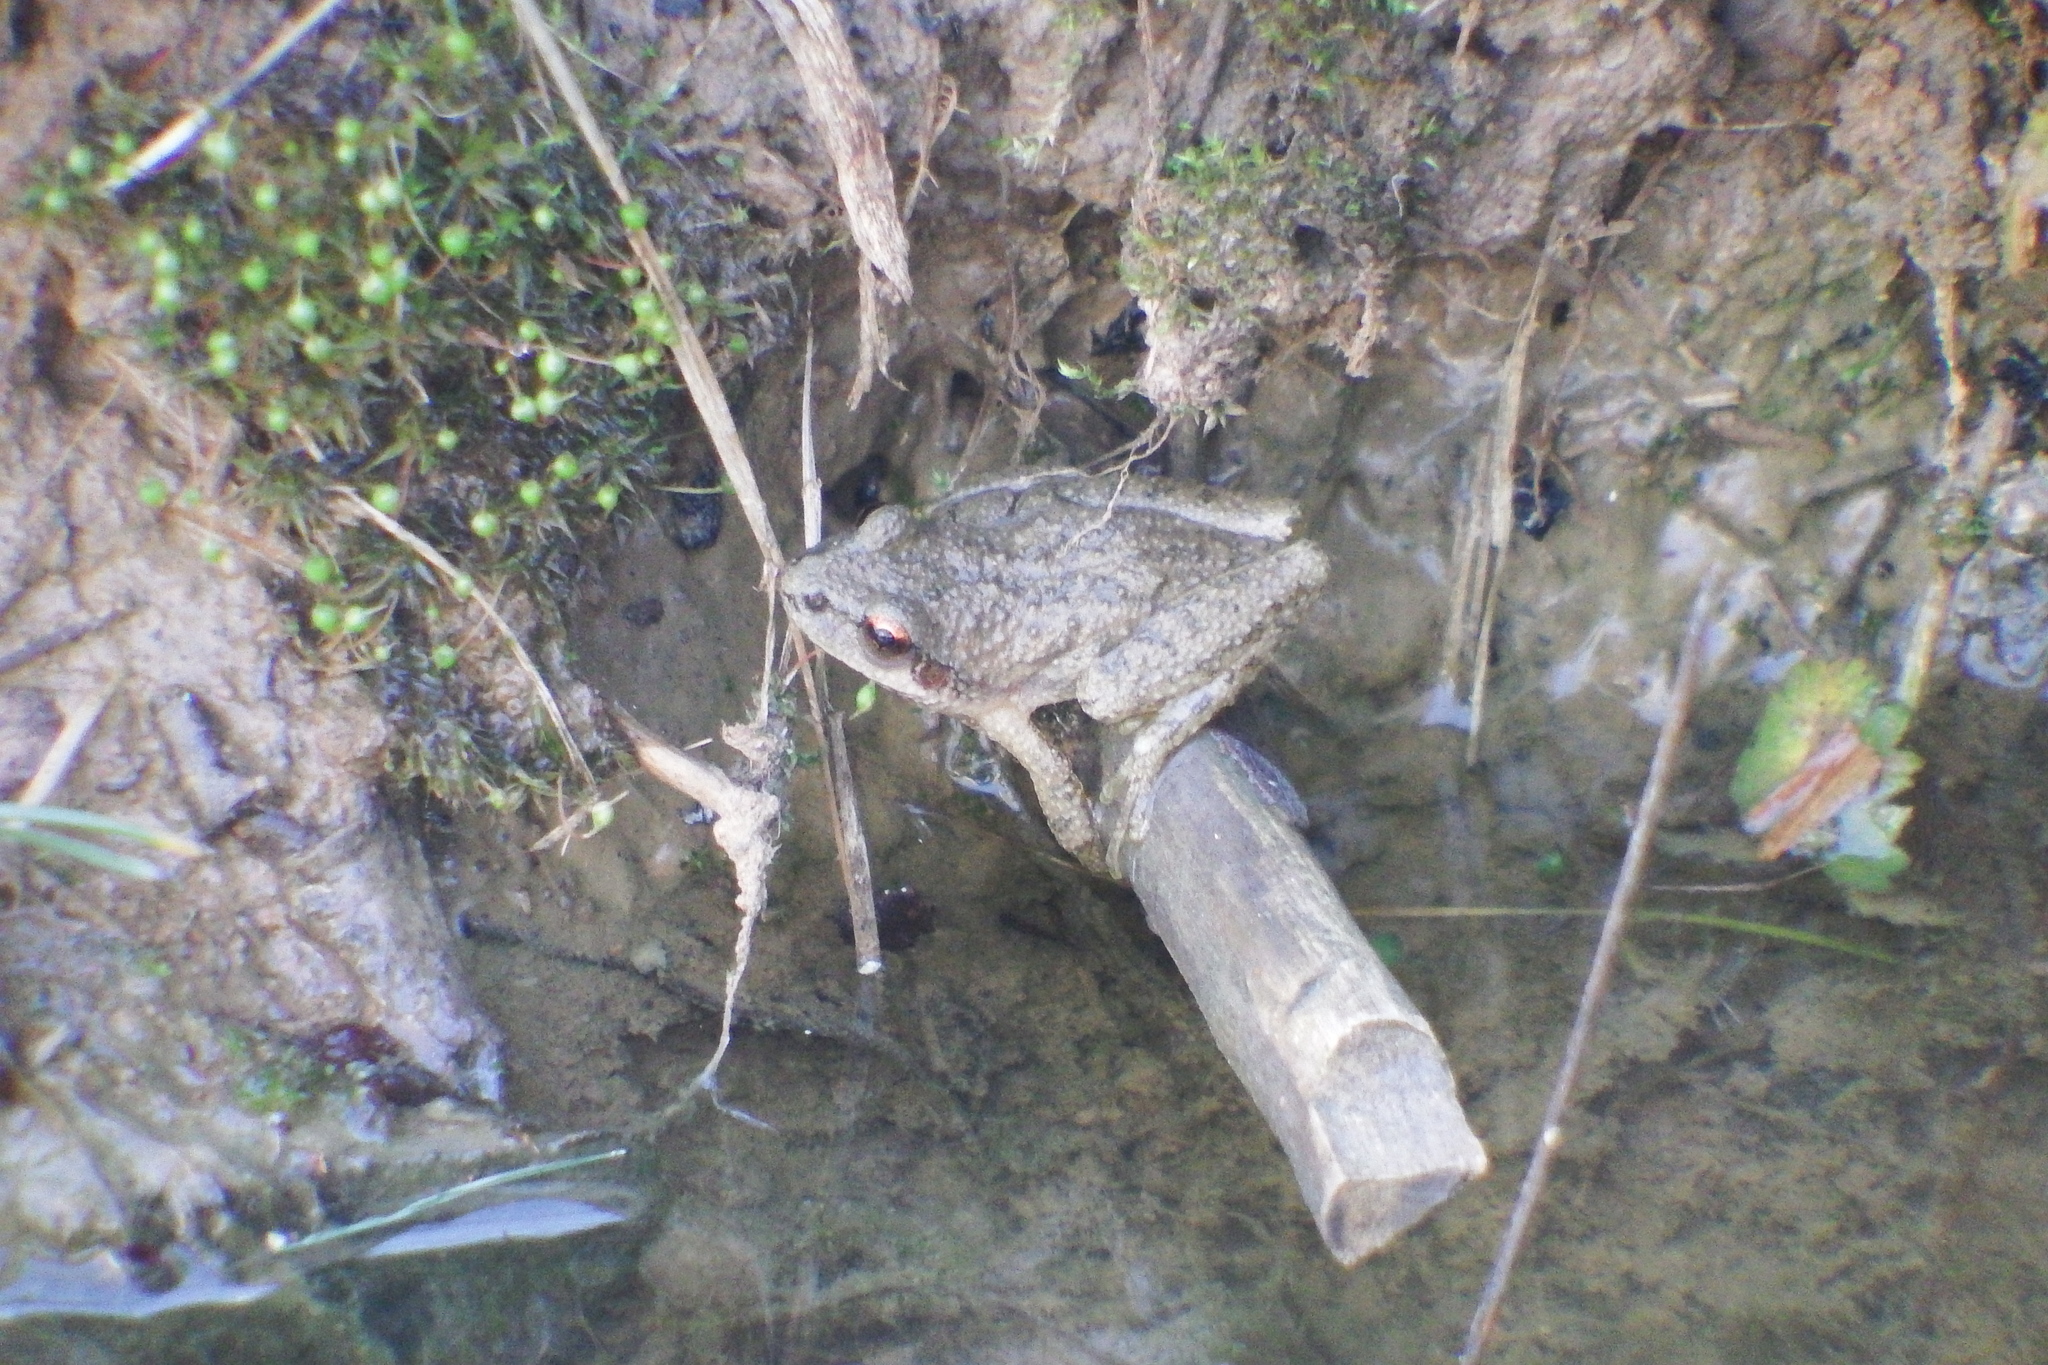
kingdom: Animalia
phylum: Chordata
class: Amphibia
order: Anura
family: Hylidae
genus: Pseudacris
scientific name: Pseudacris brachyphona
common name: Mountain chorus frog
